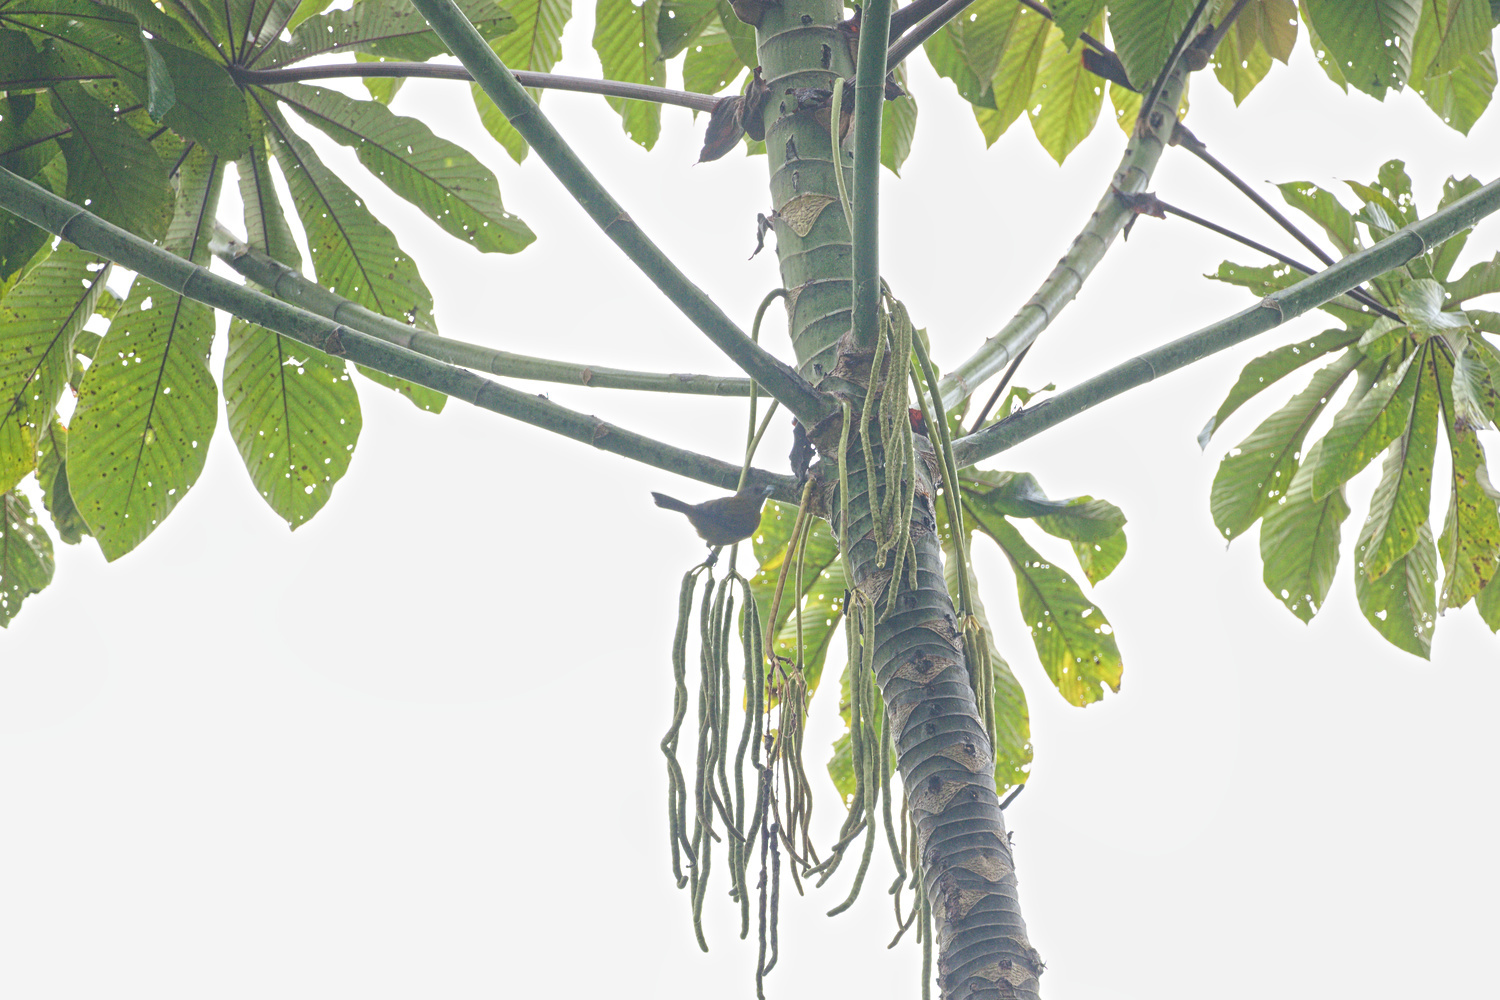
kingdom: Animalia
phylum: Chordata
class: Aves
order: Passeriformes
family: Thraupidae
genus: Ramphocelus
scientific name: Ramphocelus passerinii
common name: Passerini's tanager
